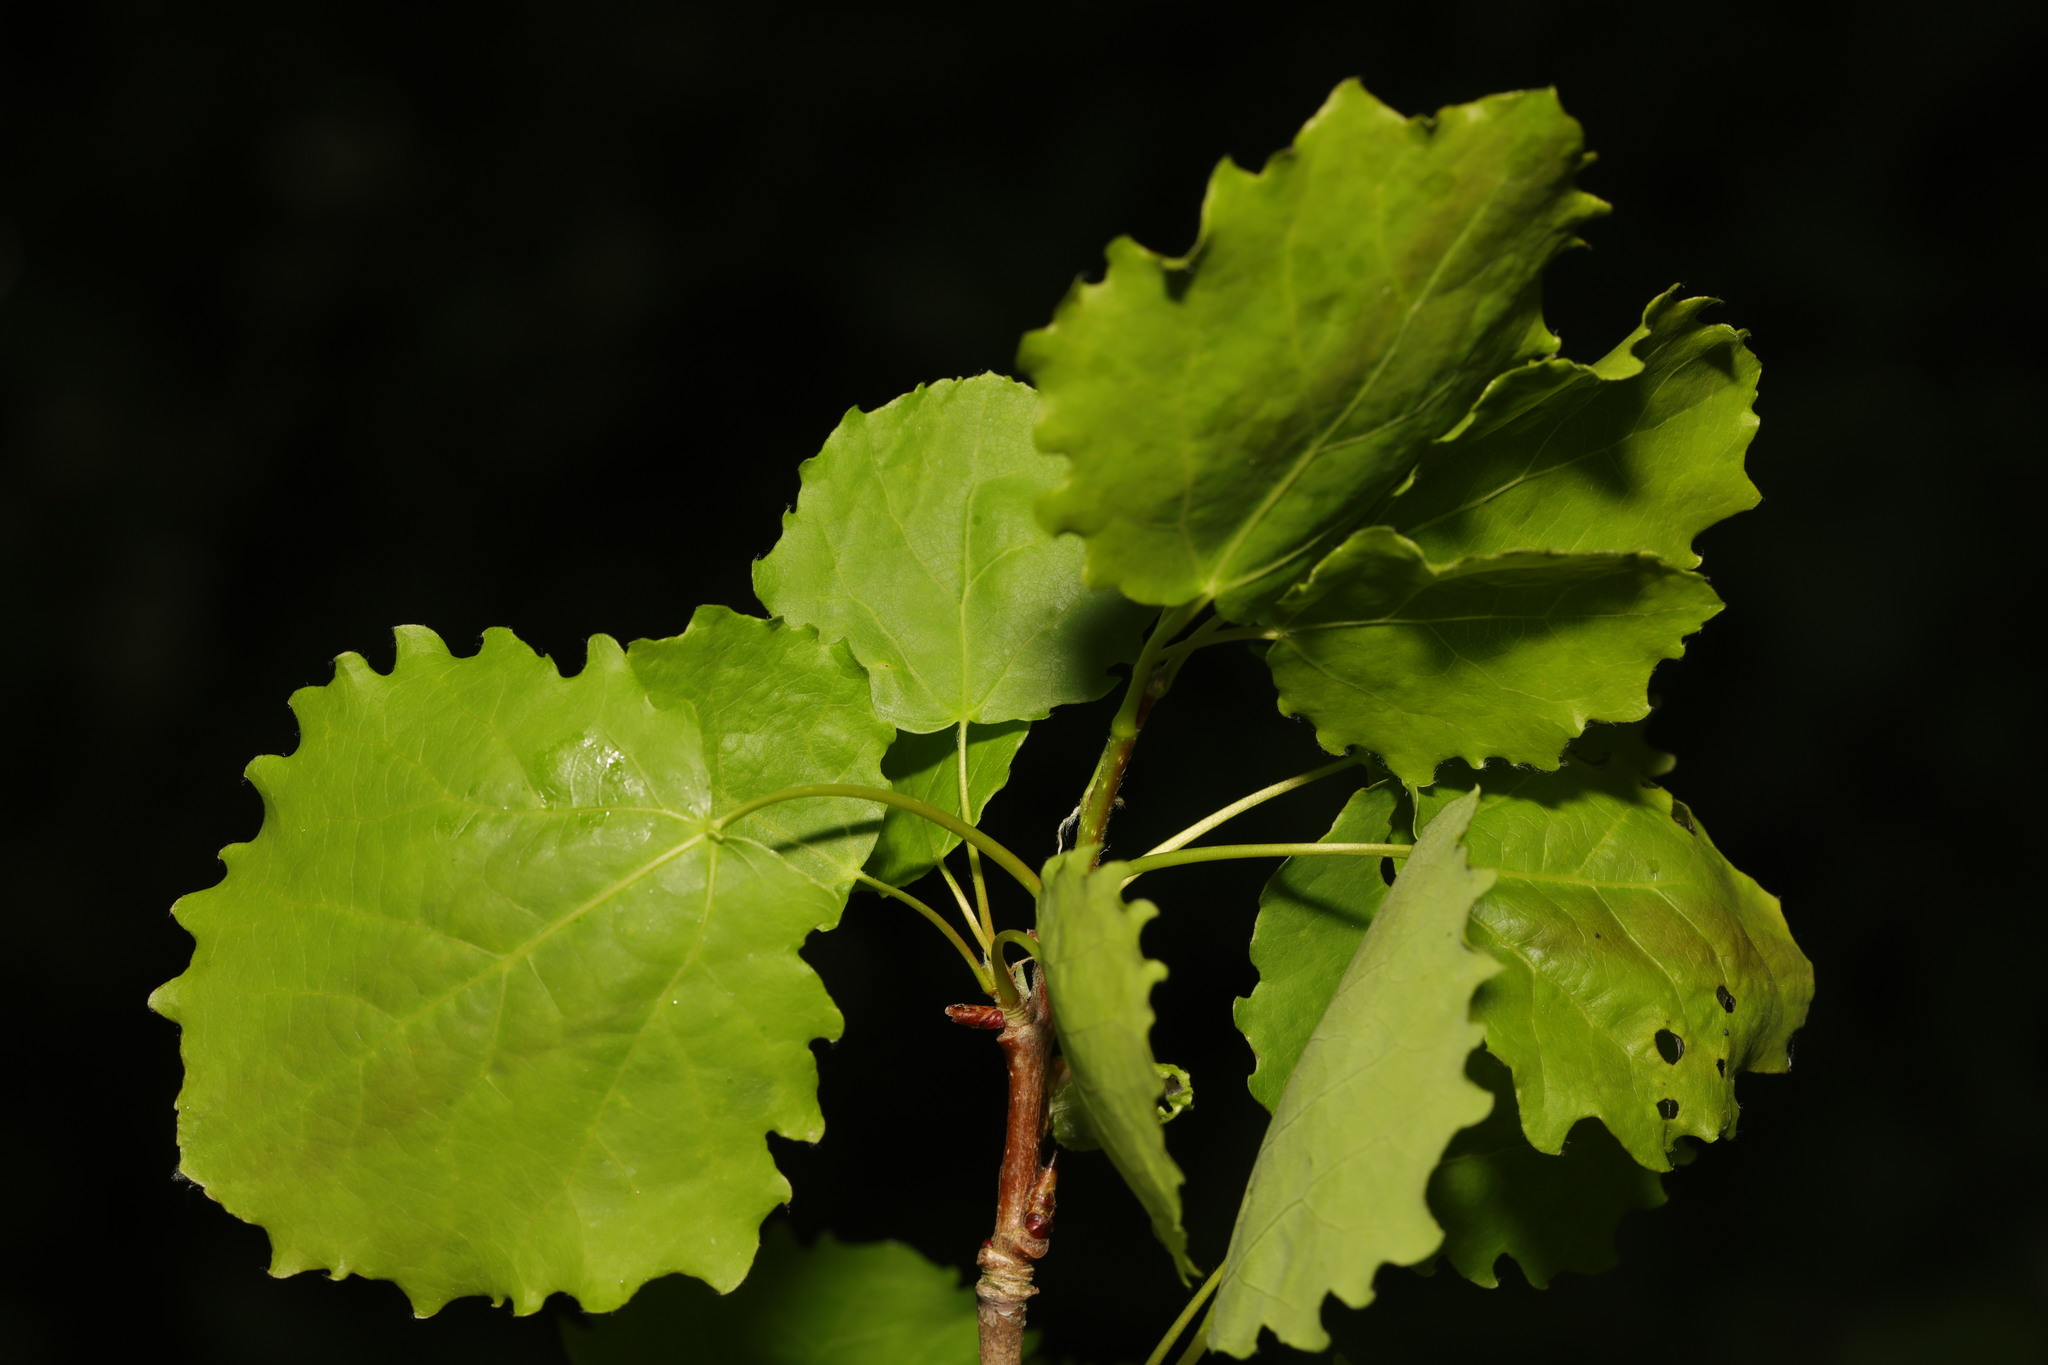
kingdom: Plantae
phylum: Tracheophyta
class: Magnoliopsida
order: Malpighiales
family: Salicaceae
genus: Populus
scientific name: Populus tremula
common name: European aspen
